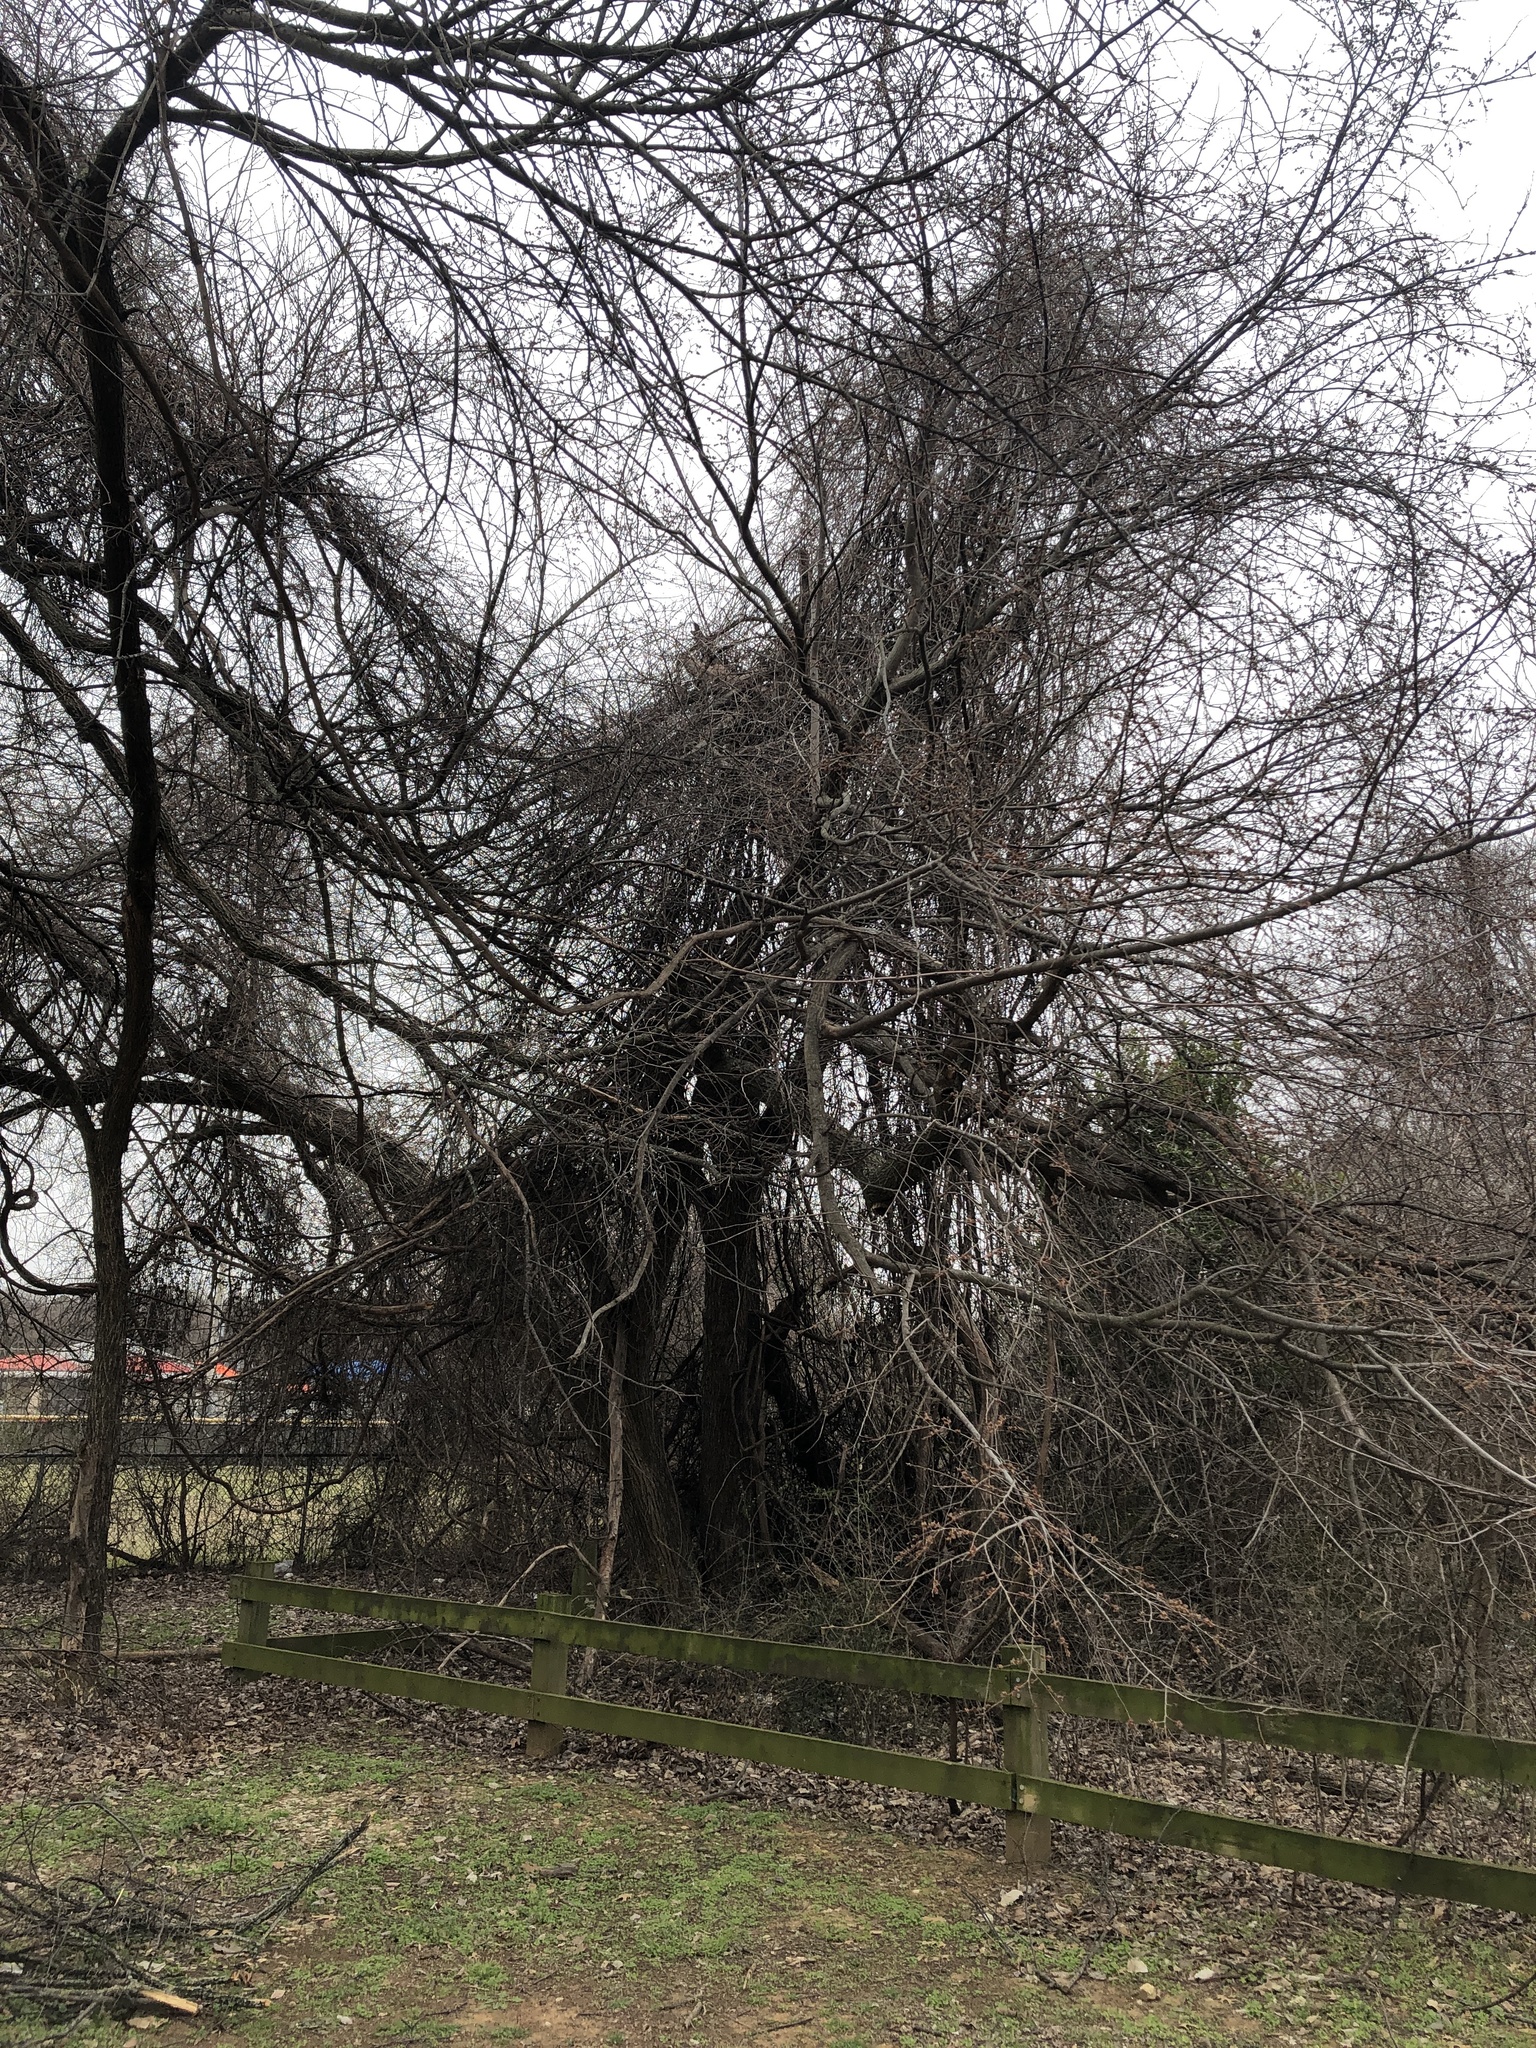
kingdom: Plantae
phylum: Tracheophyta
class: Magnoliopsida
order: Rosales
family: Ulmaceae
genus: Ulmus
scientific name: Ulmus americana
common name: American elm
